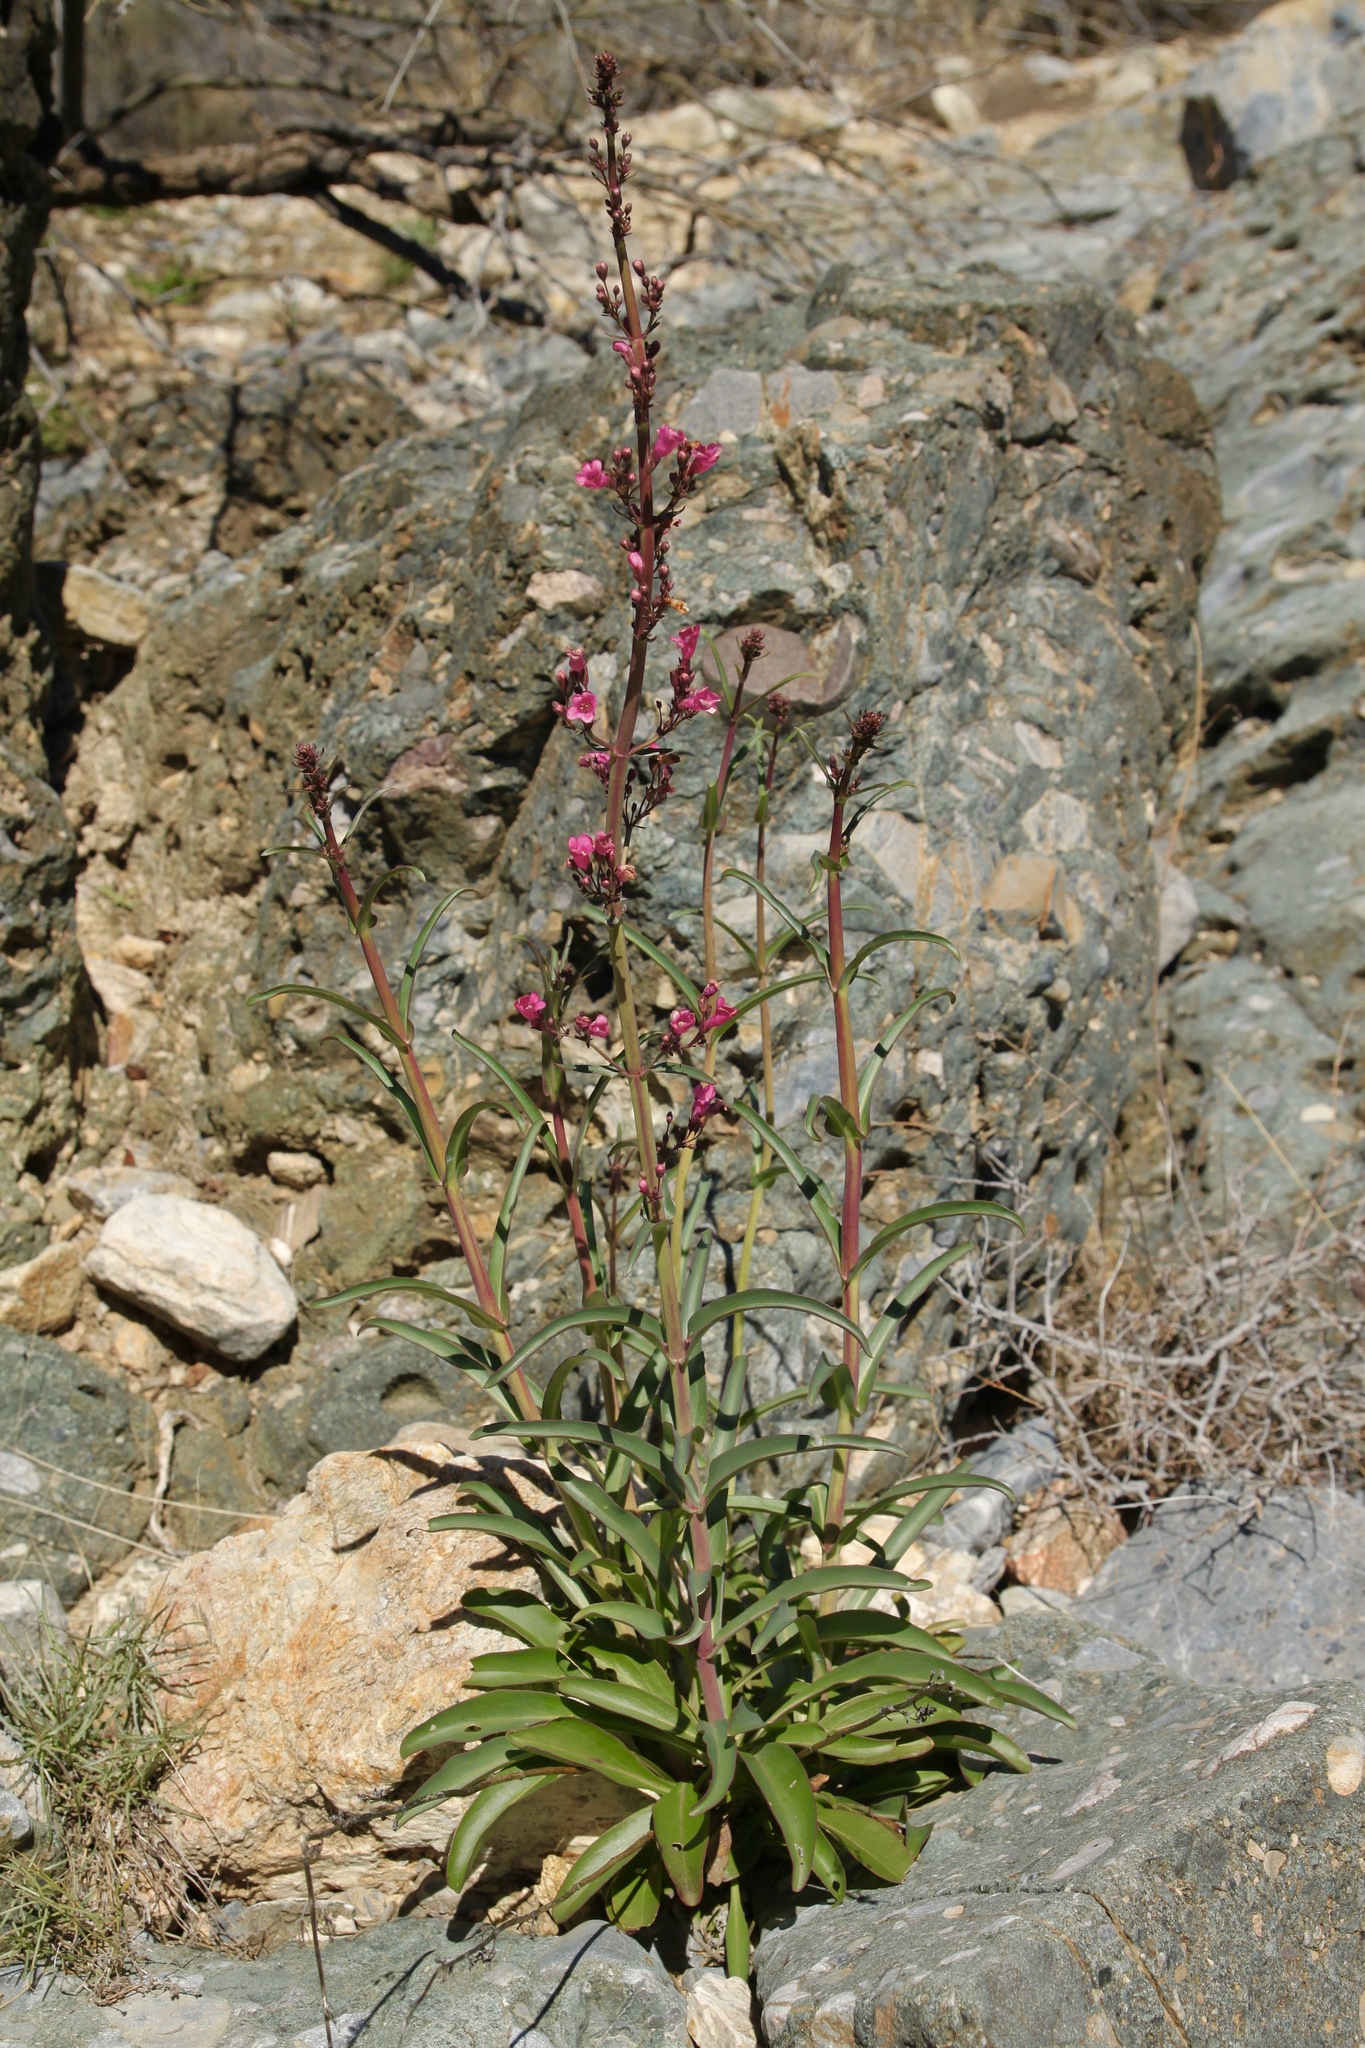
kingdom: Plantae
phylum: Tracheophyta
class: Magnoliopsida
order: Lamiales
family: Plantaginaceae
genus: Penstemon
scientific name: Penstemon parryi
